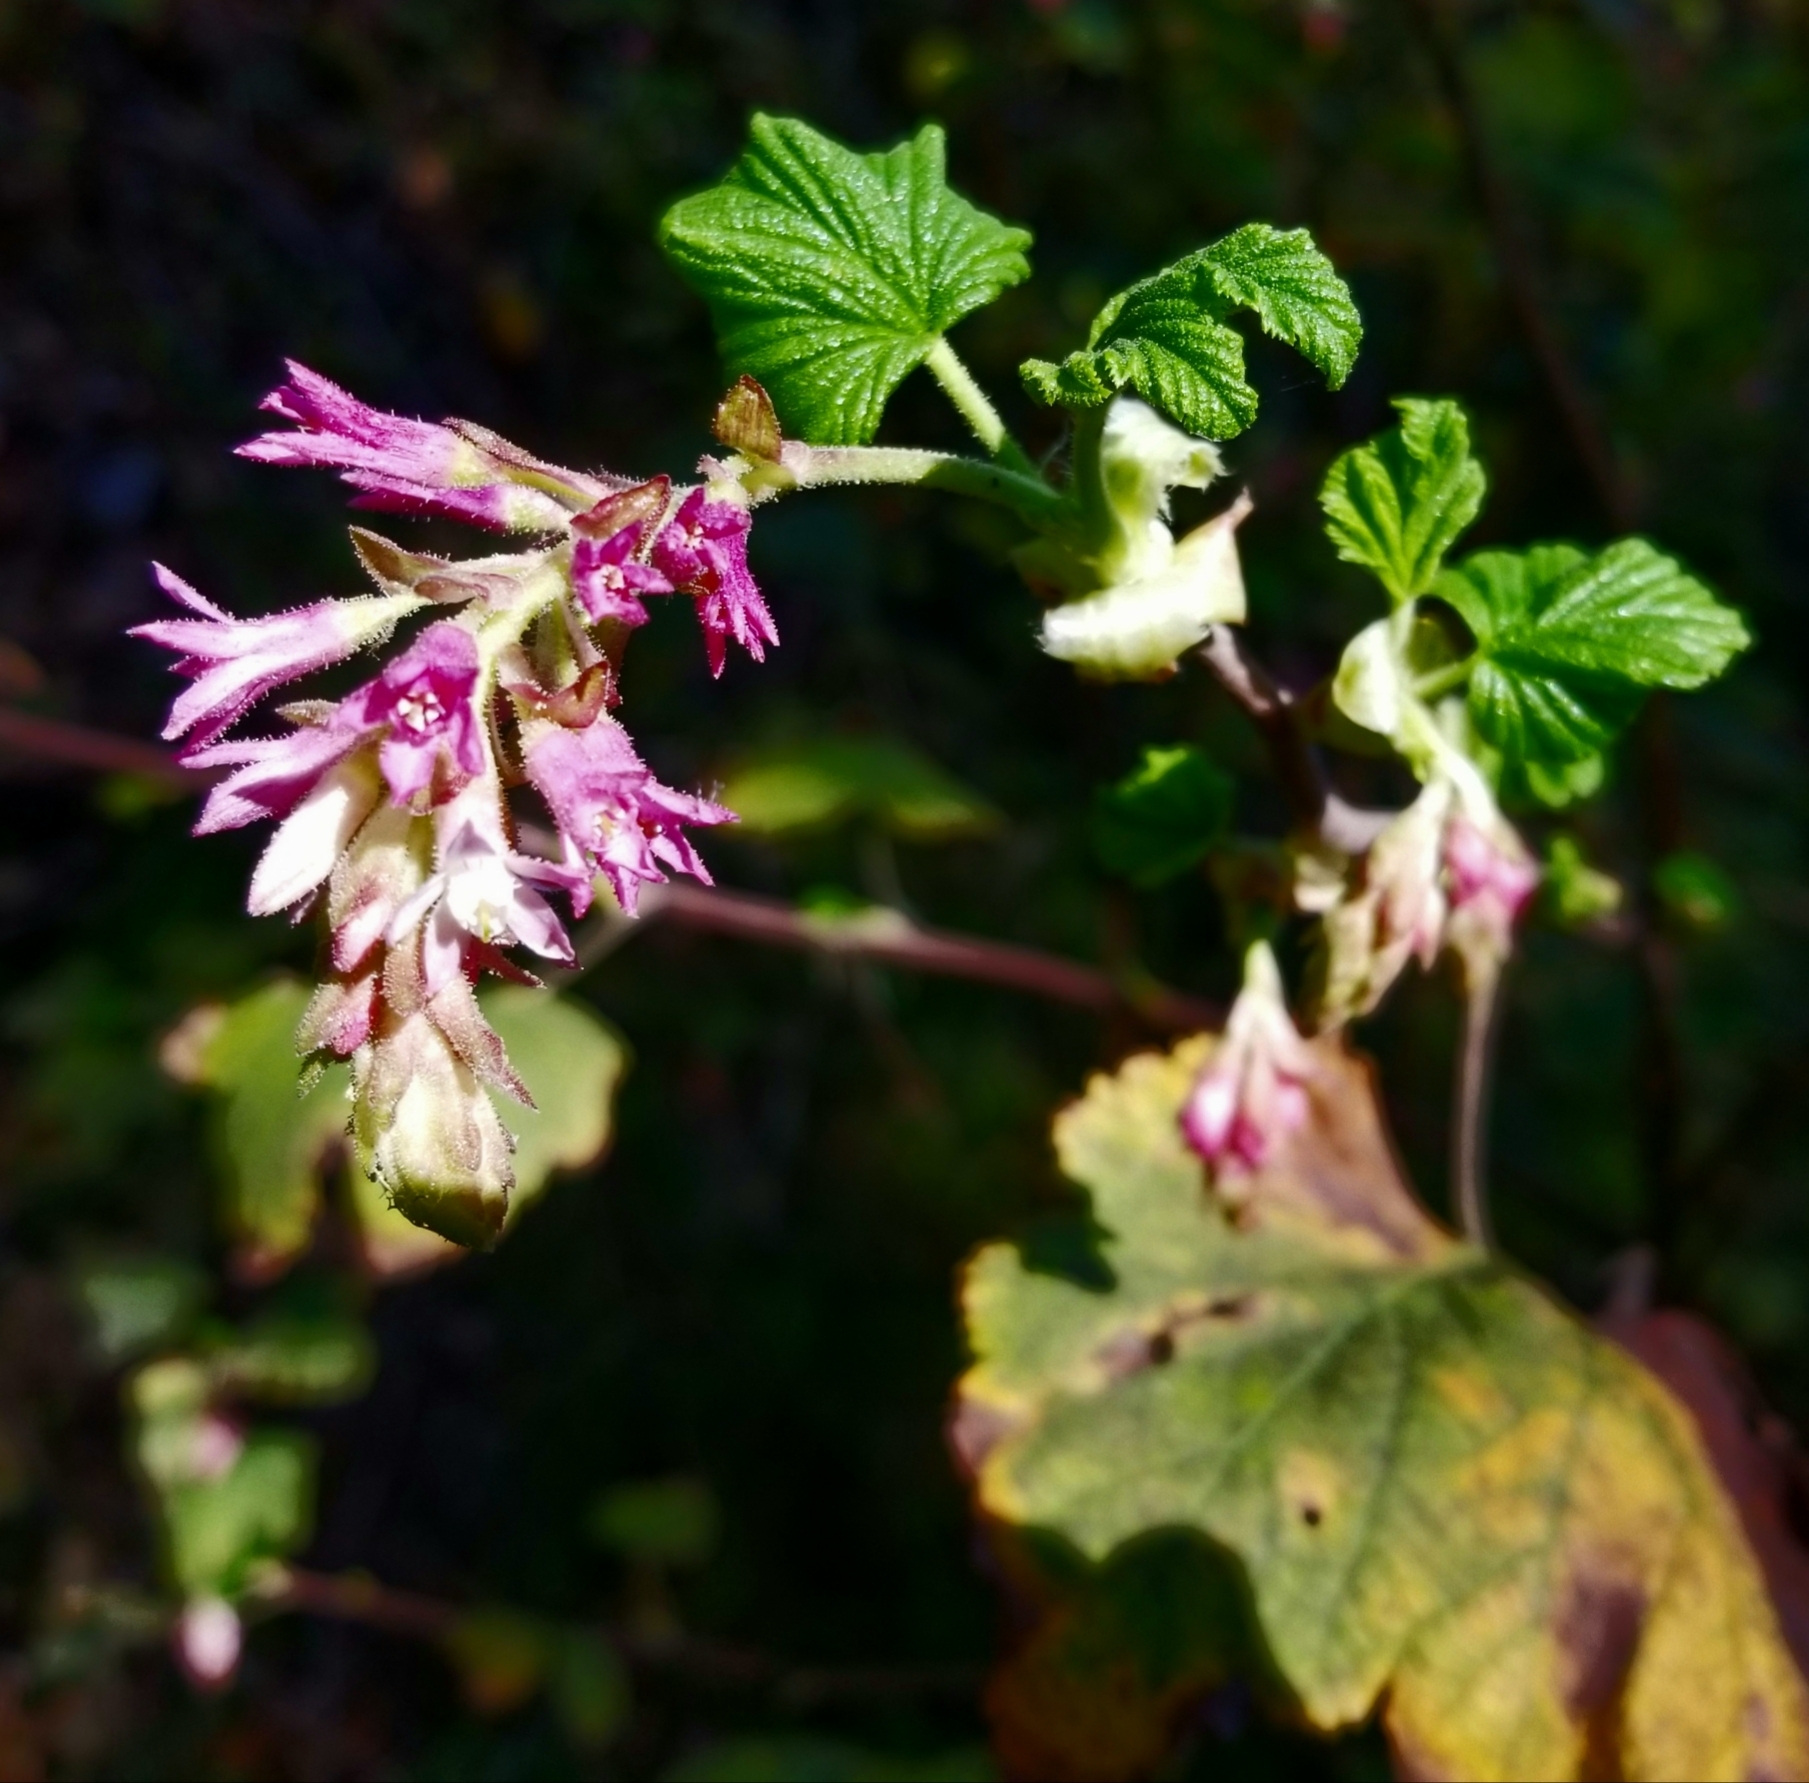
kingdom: Plantae
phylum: Tracheophyta
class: Magnoliopsida
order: Saxifragales
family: Grossulariaceae
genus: Ribes
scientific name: Ribes sanguineum
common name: Flowering currant
